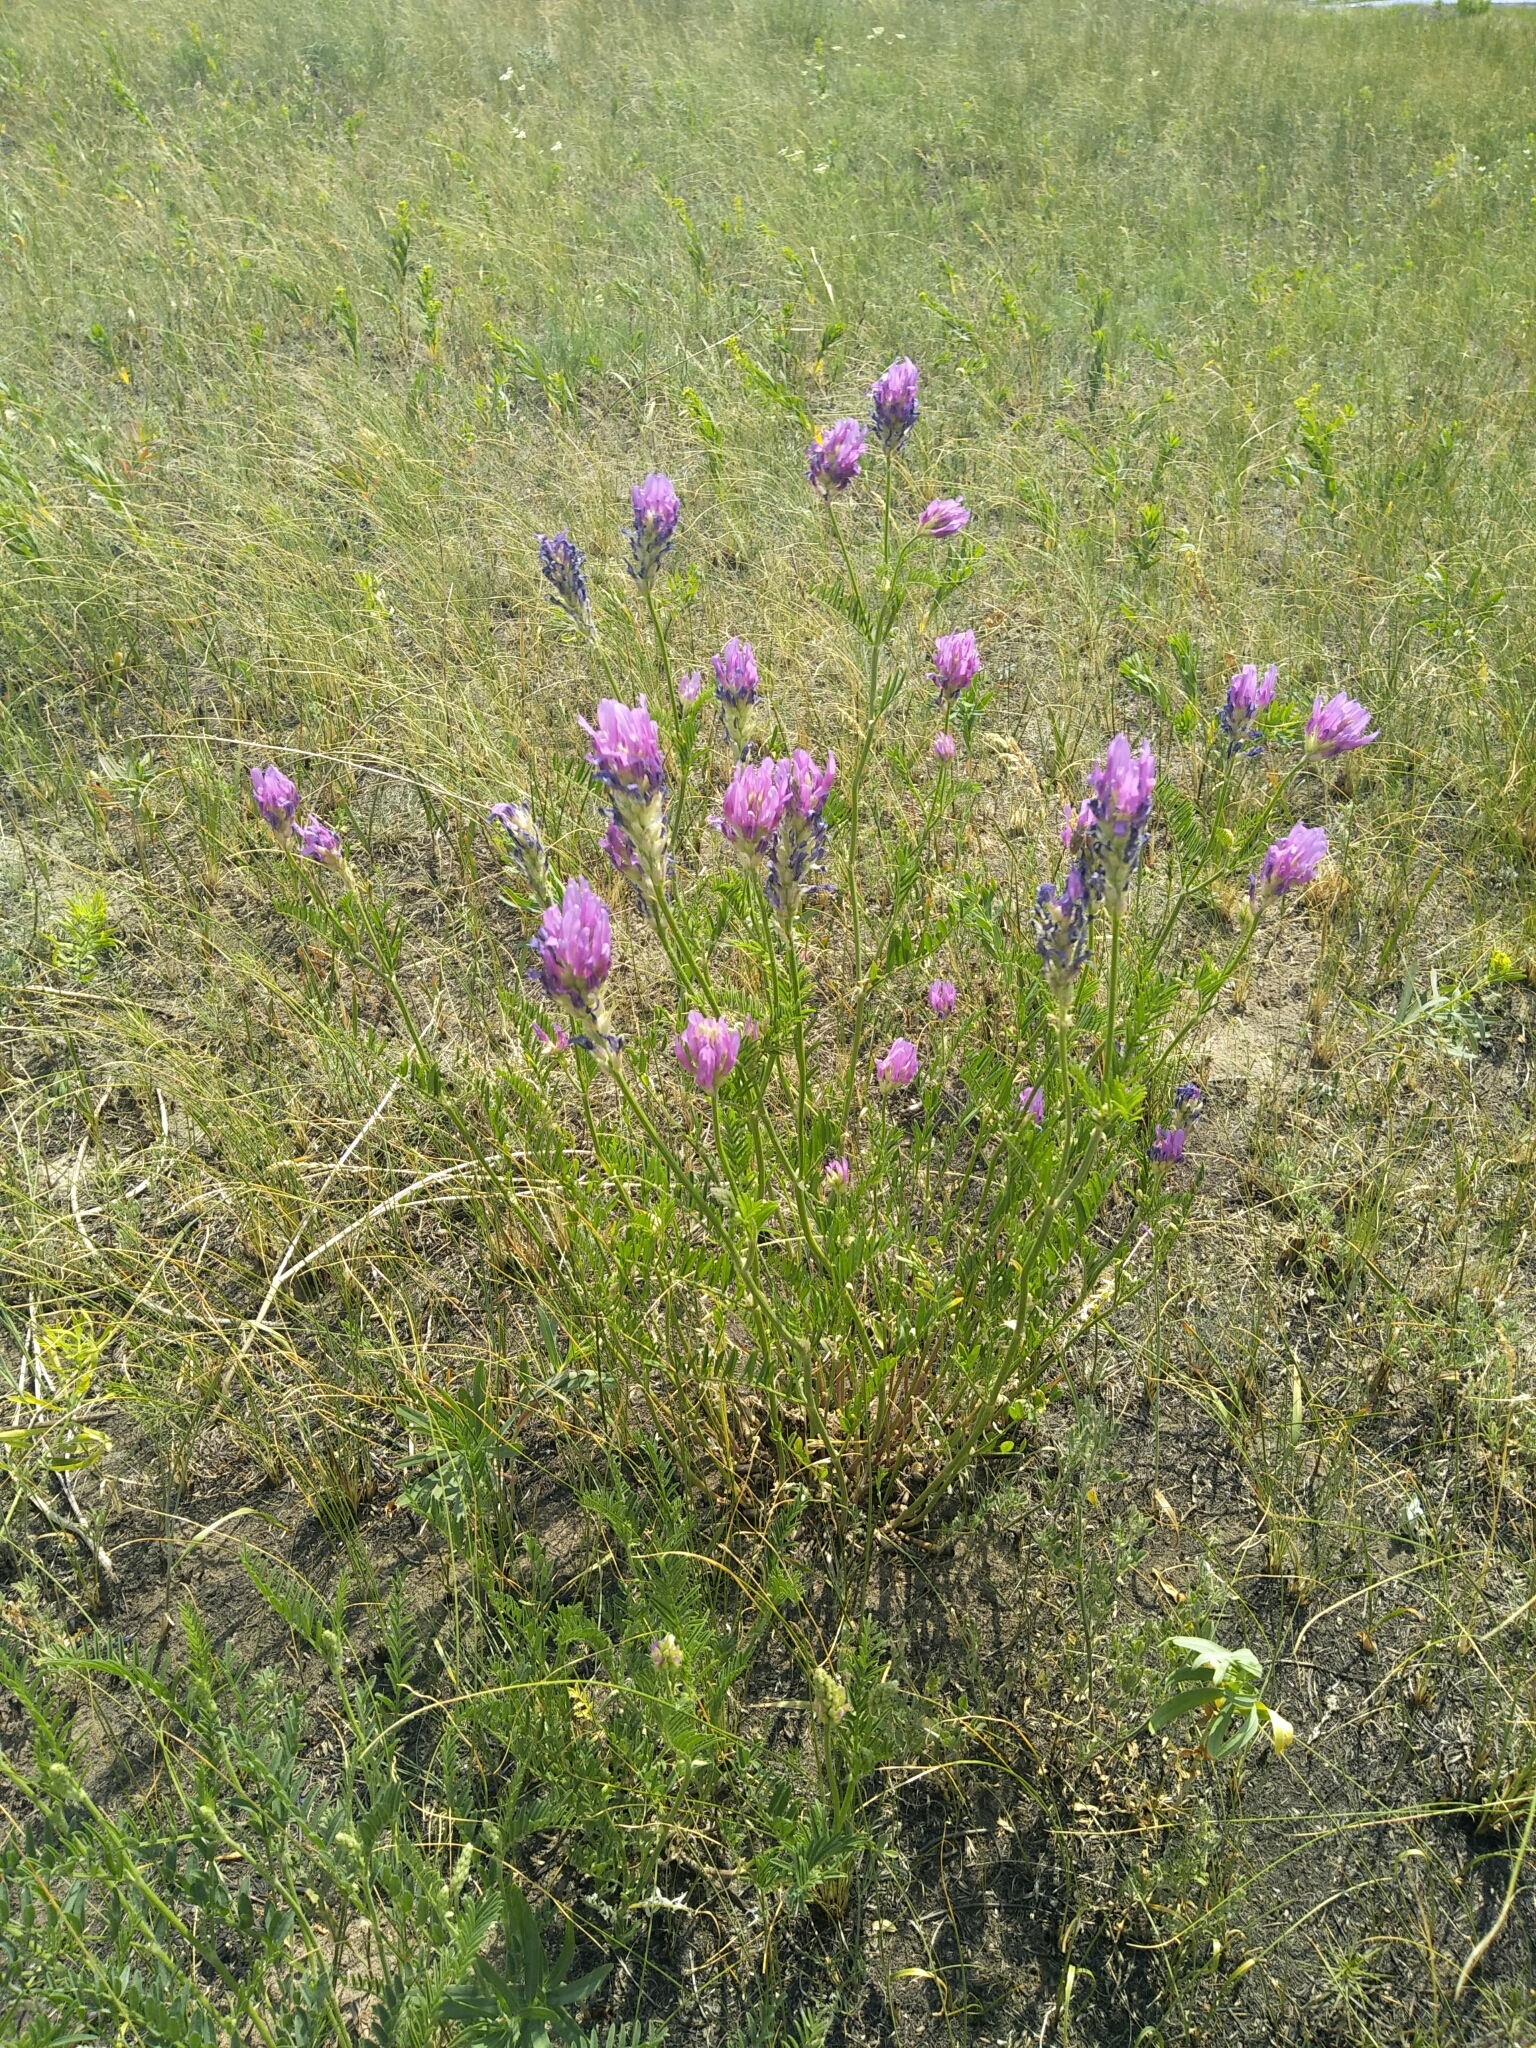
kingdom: Plantae
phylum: Tracheophyta
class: Magnoliopsida
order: Fabales
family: Fabaceae
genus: Astragalus
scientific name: Astragalus onobrychis
